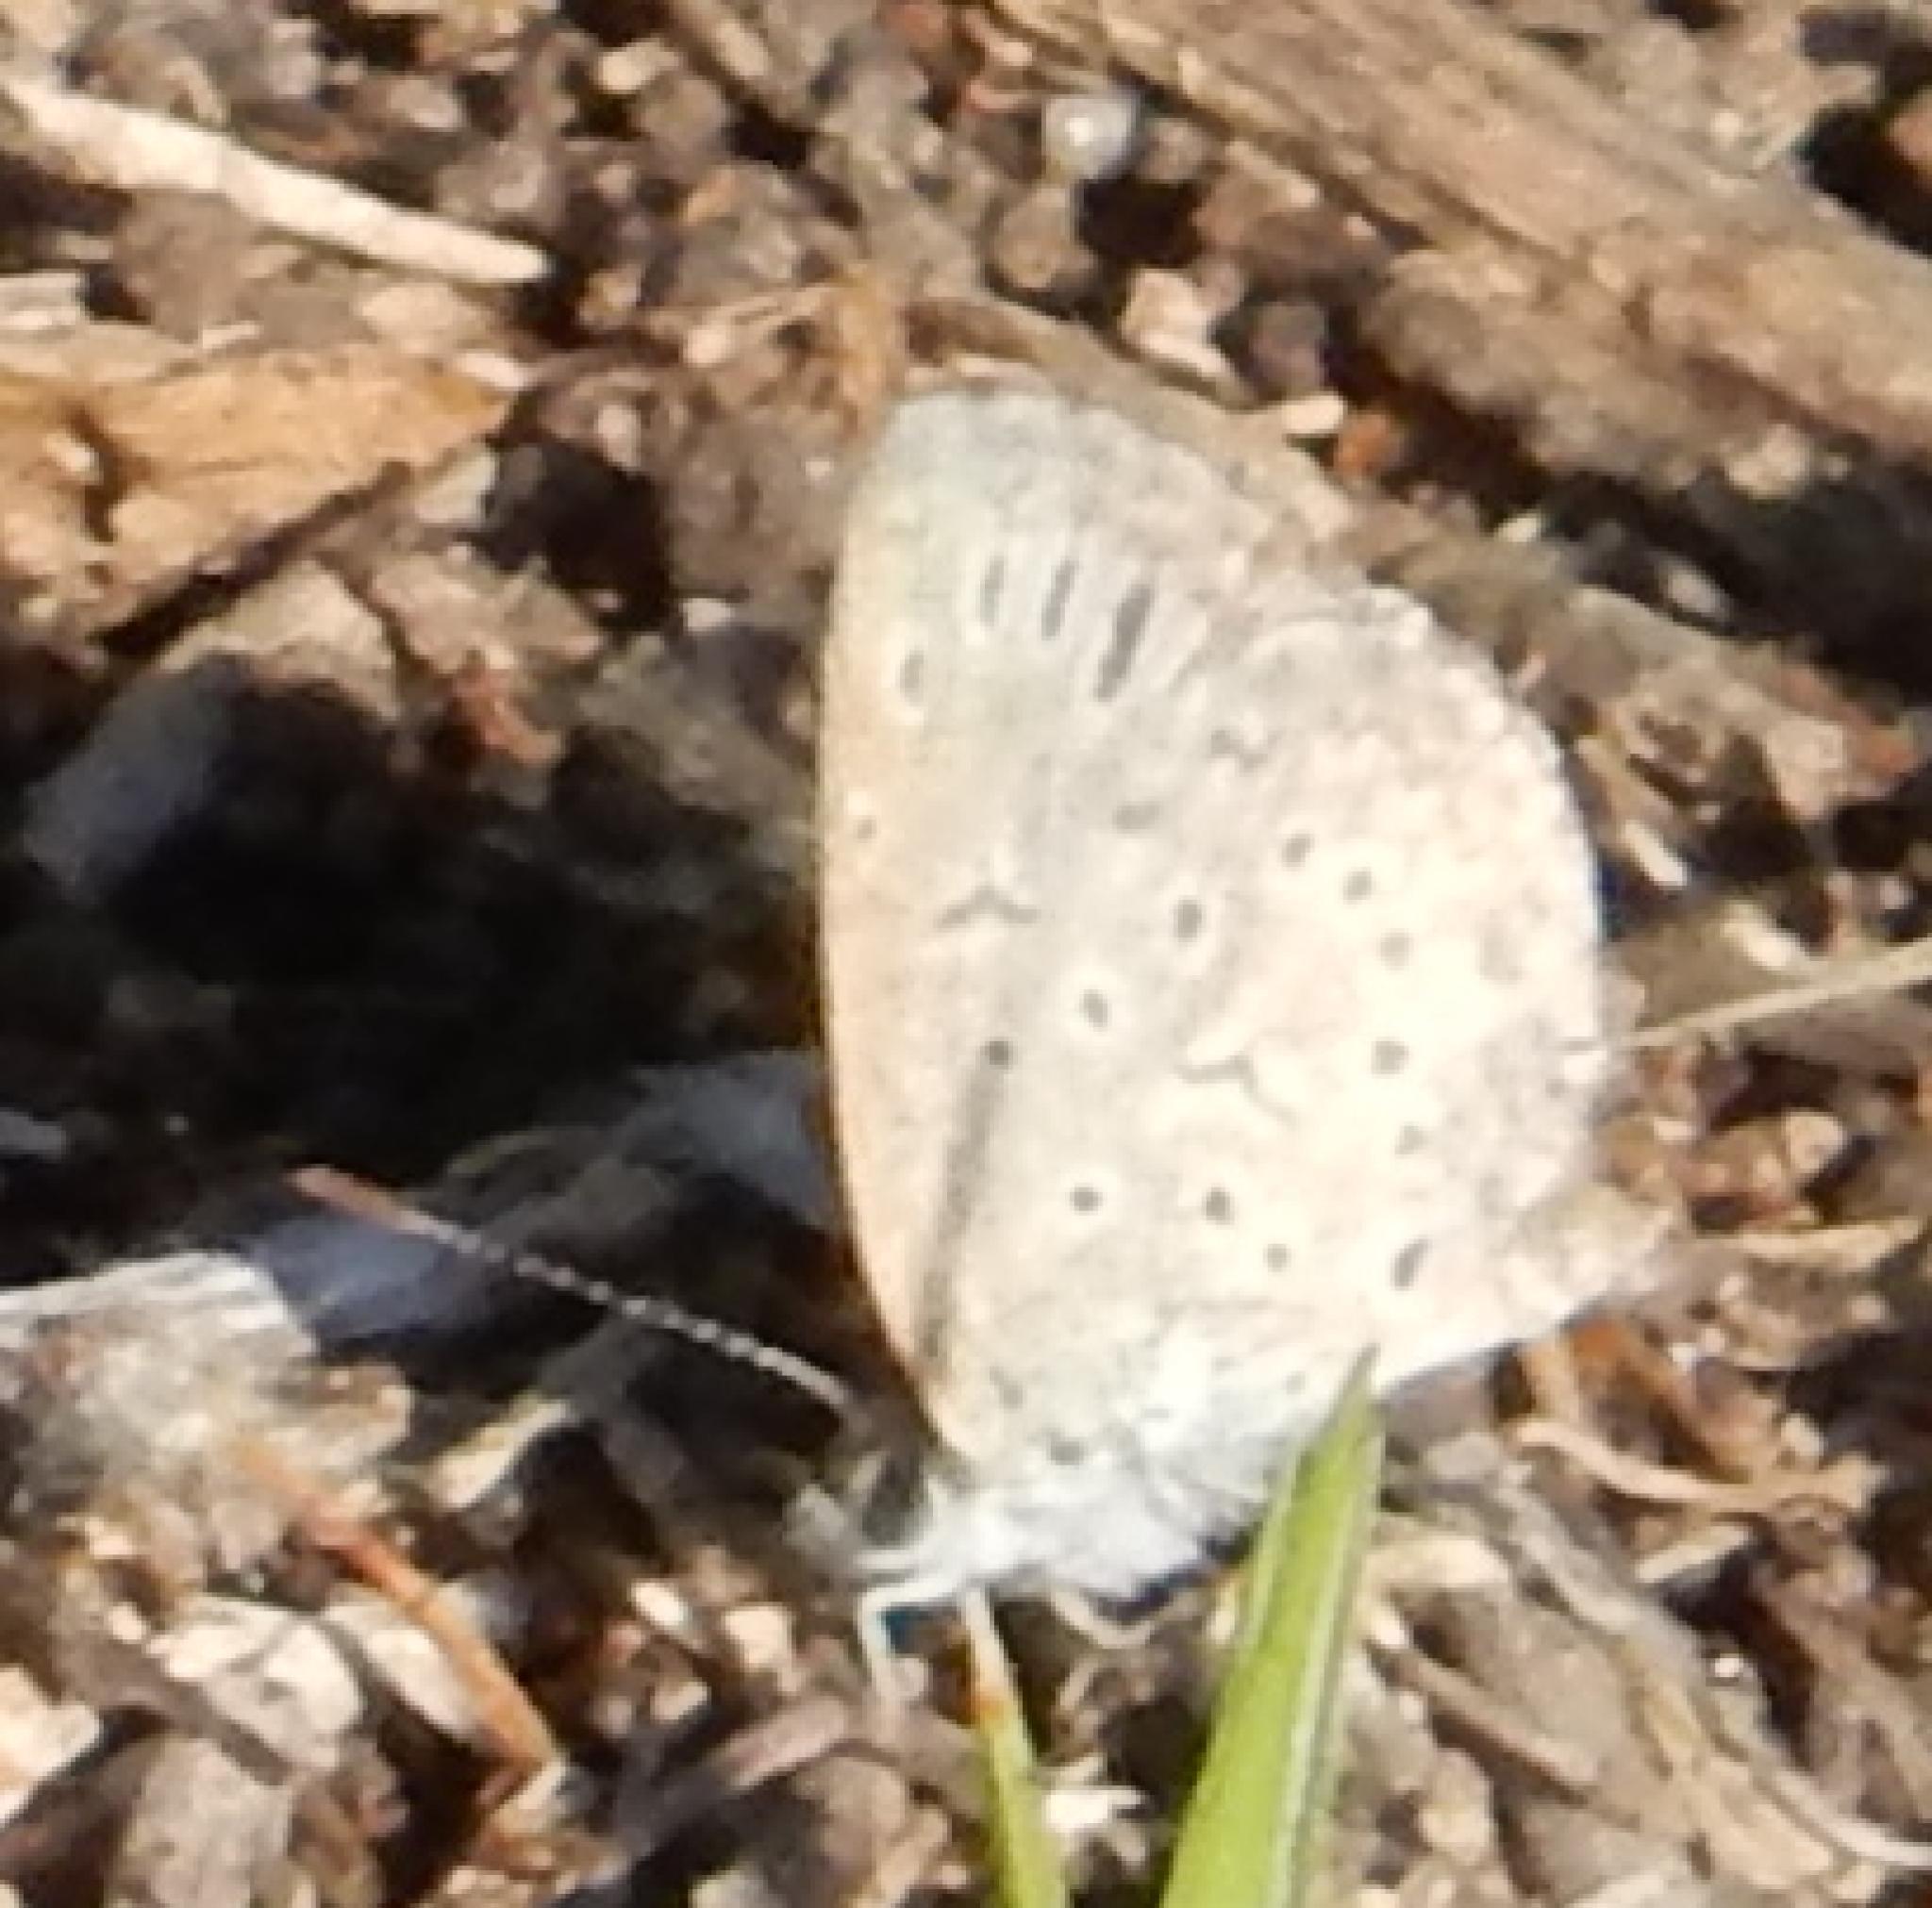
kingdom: Animalia
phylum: Arthropoda
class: Insecta
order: Lepidoptera
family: Lycaenidae
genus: Zizeeria
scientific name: Zizeeria knysna
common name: African grass blue
